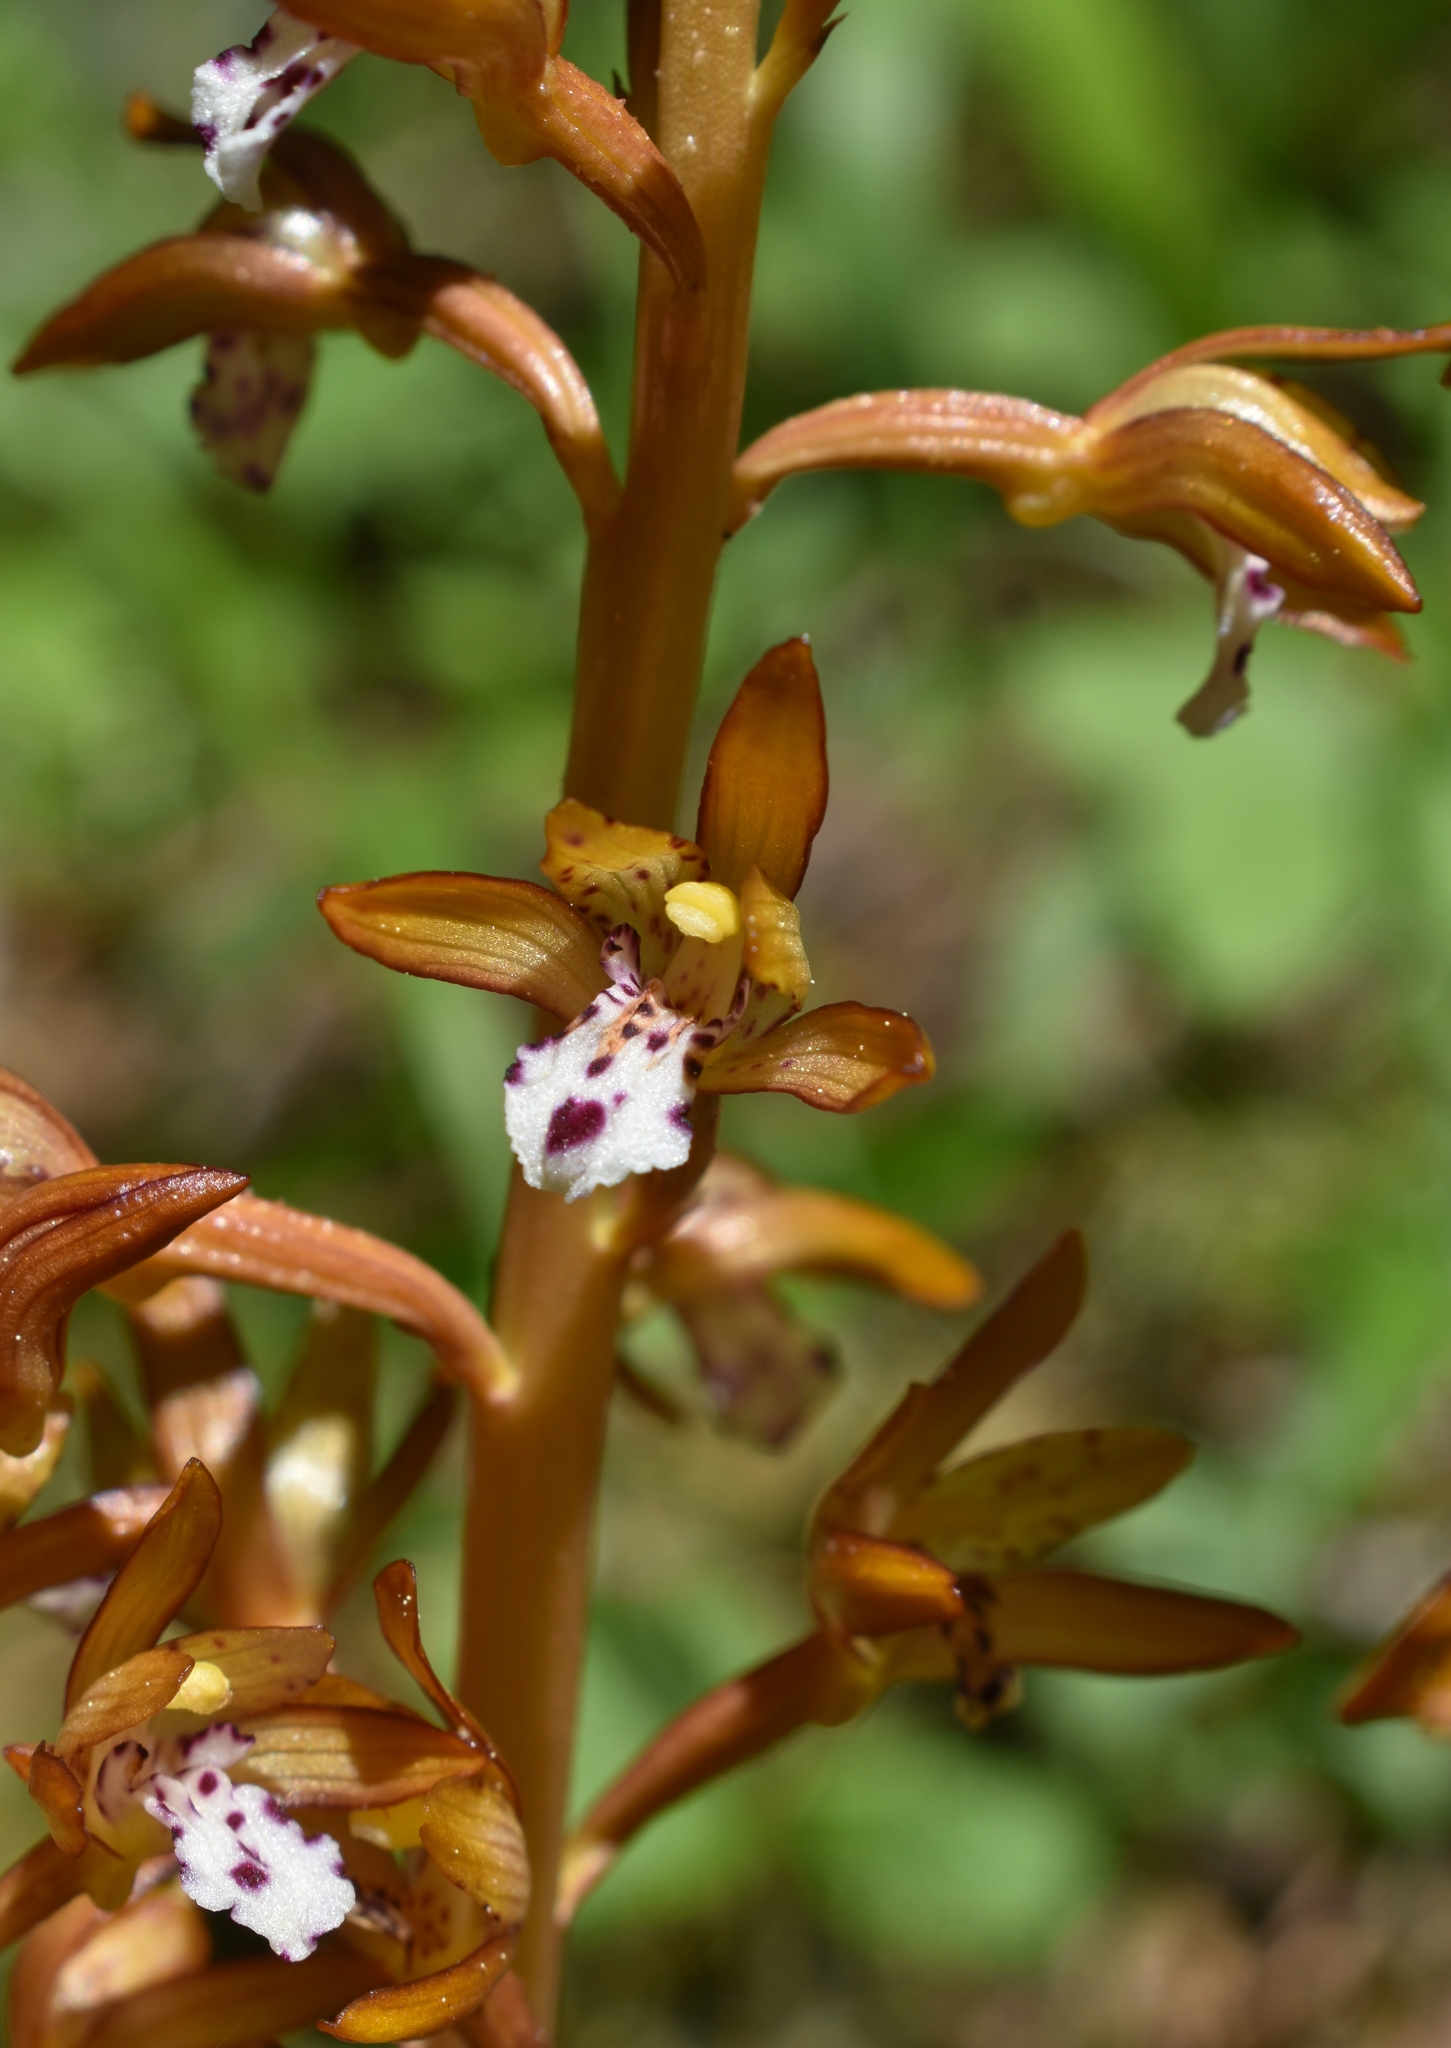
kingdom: Plantae
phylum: Tracheophyta
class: Liliopsida
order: Asparagales
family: Orchidaceae
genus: Corallorhiza
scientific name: Corallorhiza maculata
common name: Spotted coralroot
